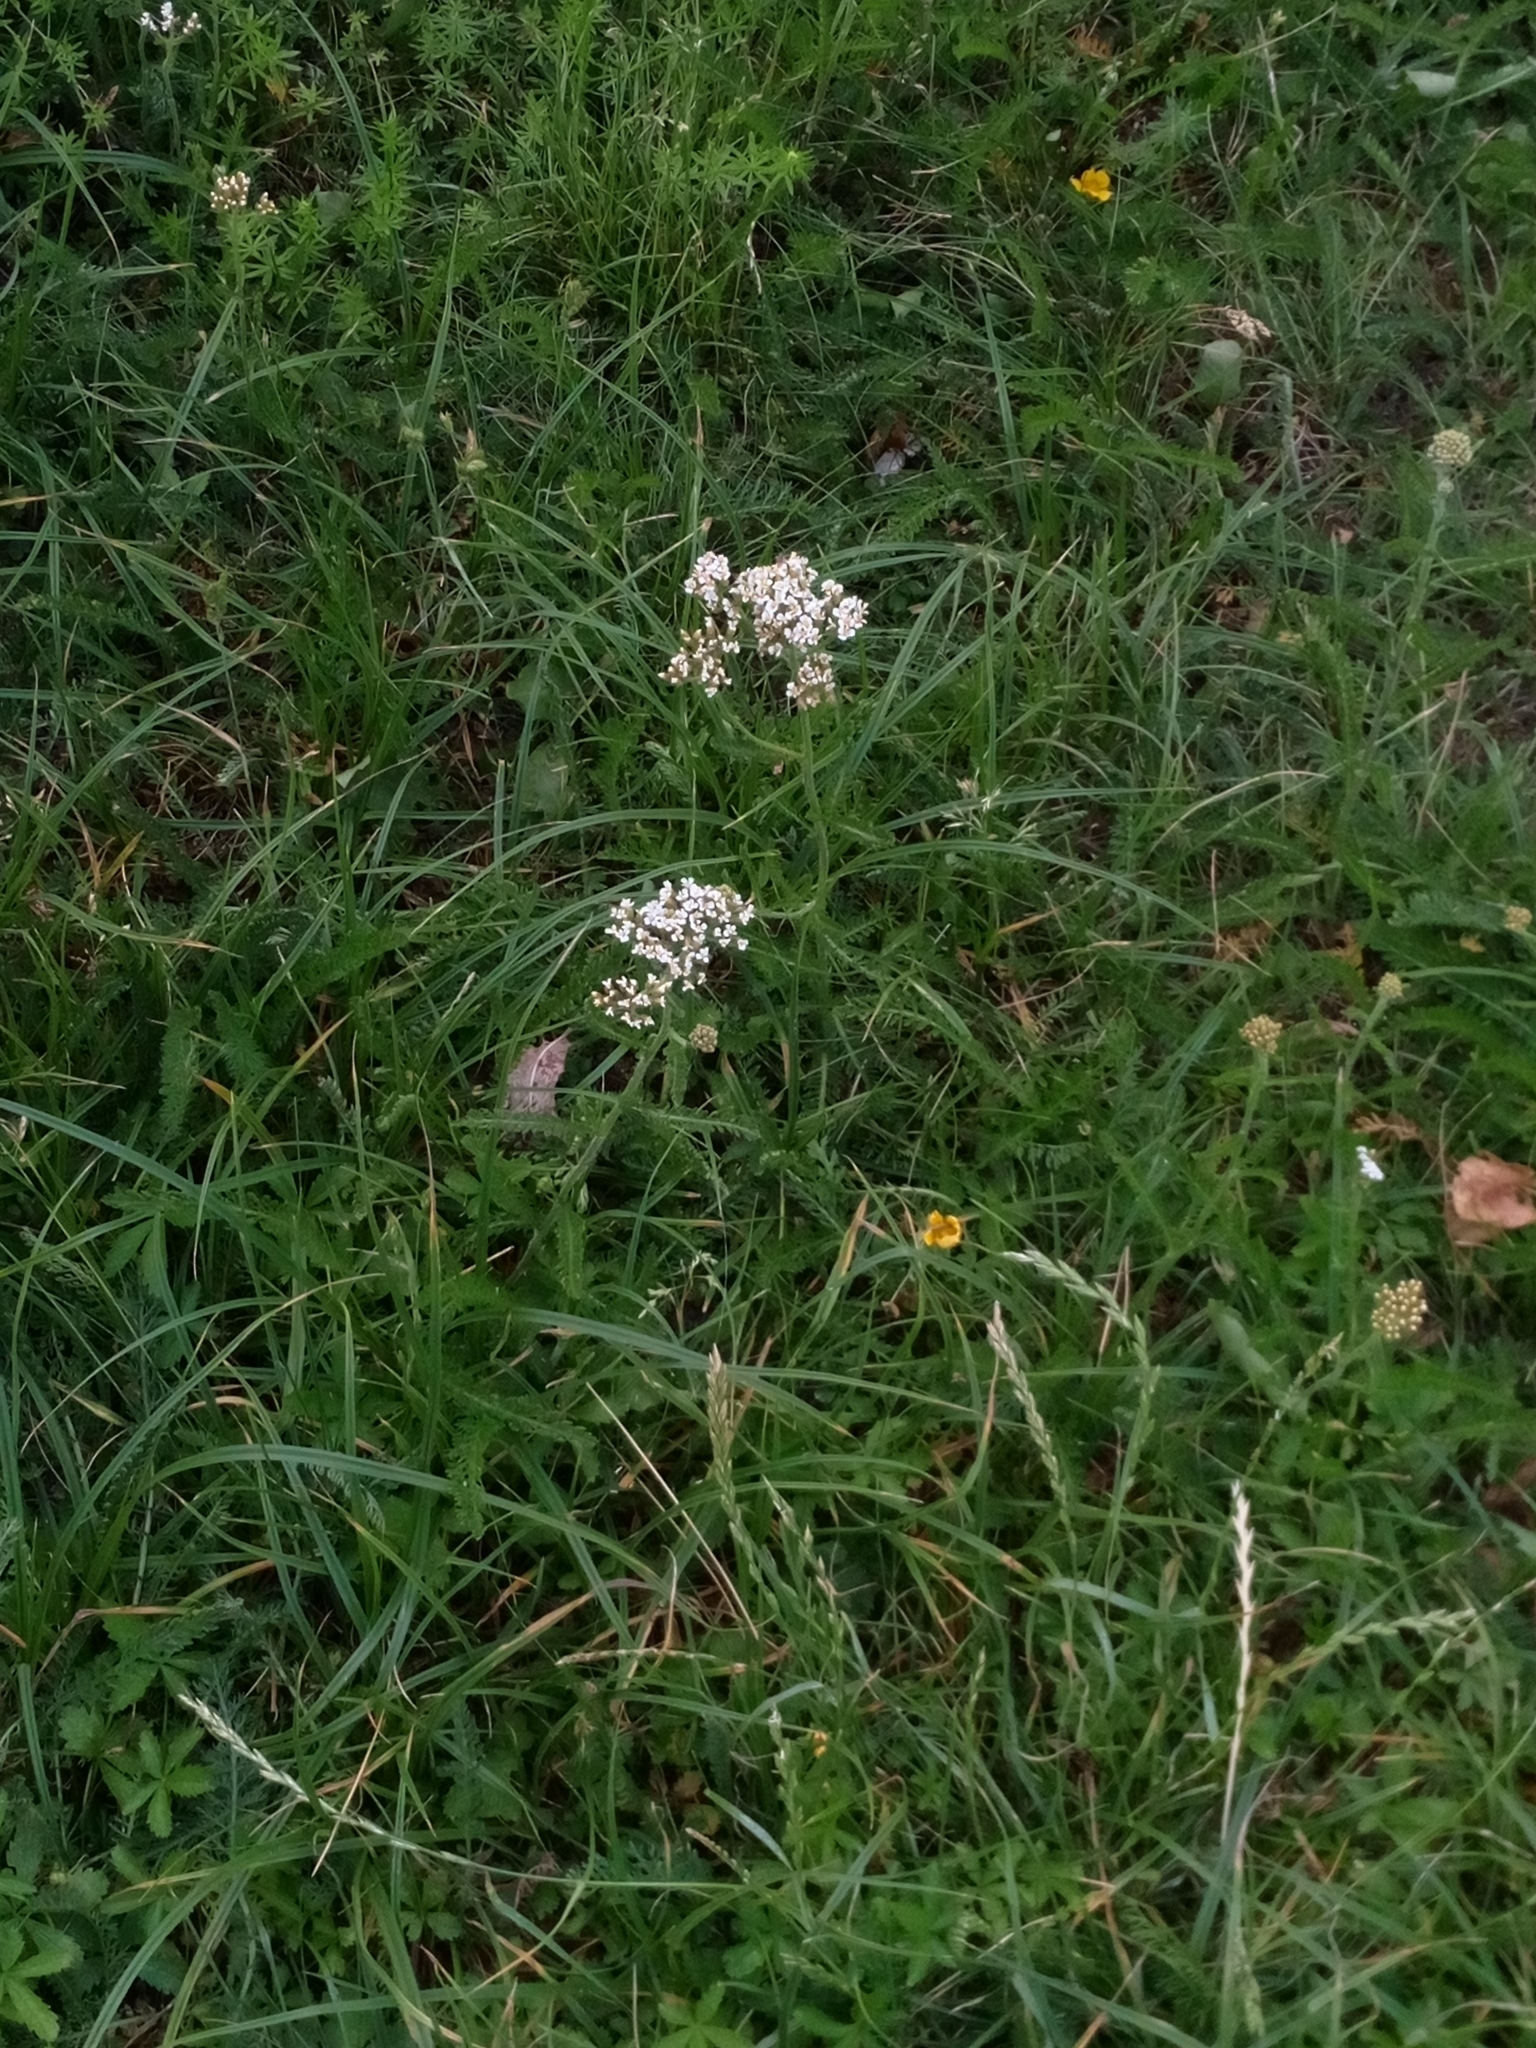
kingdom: Plantae
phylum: Tracheophyta
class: Magnoliopsida
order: Asterales
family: Asteraceae
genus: Achillea
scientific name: Achillea millefolium
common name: Yarrow
